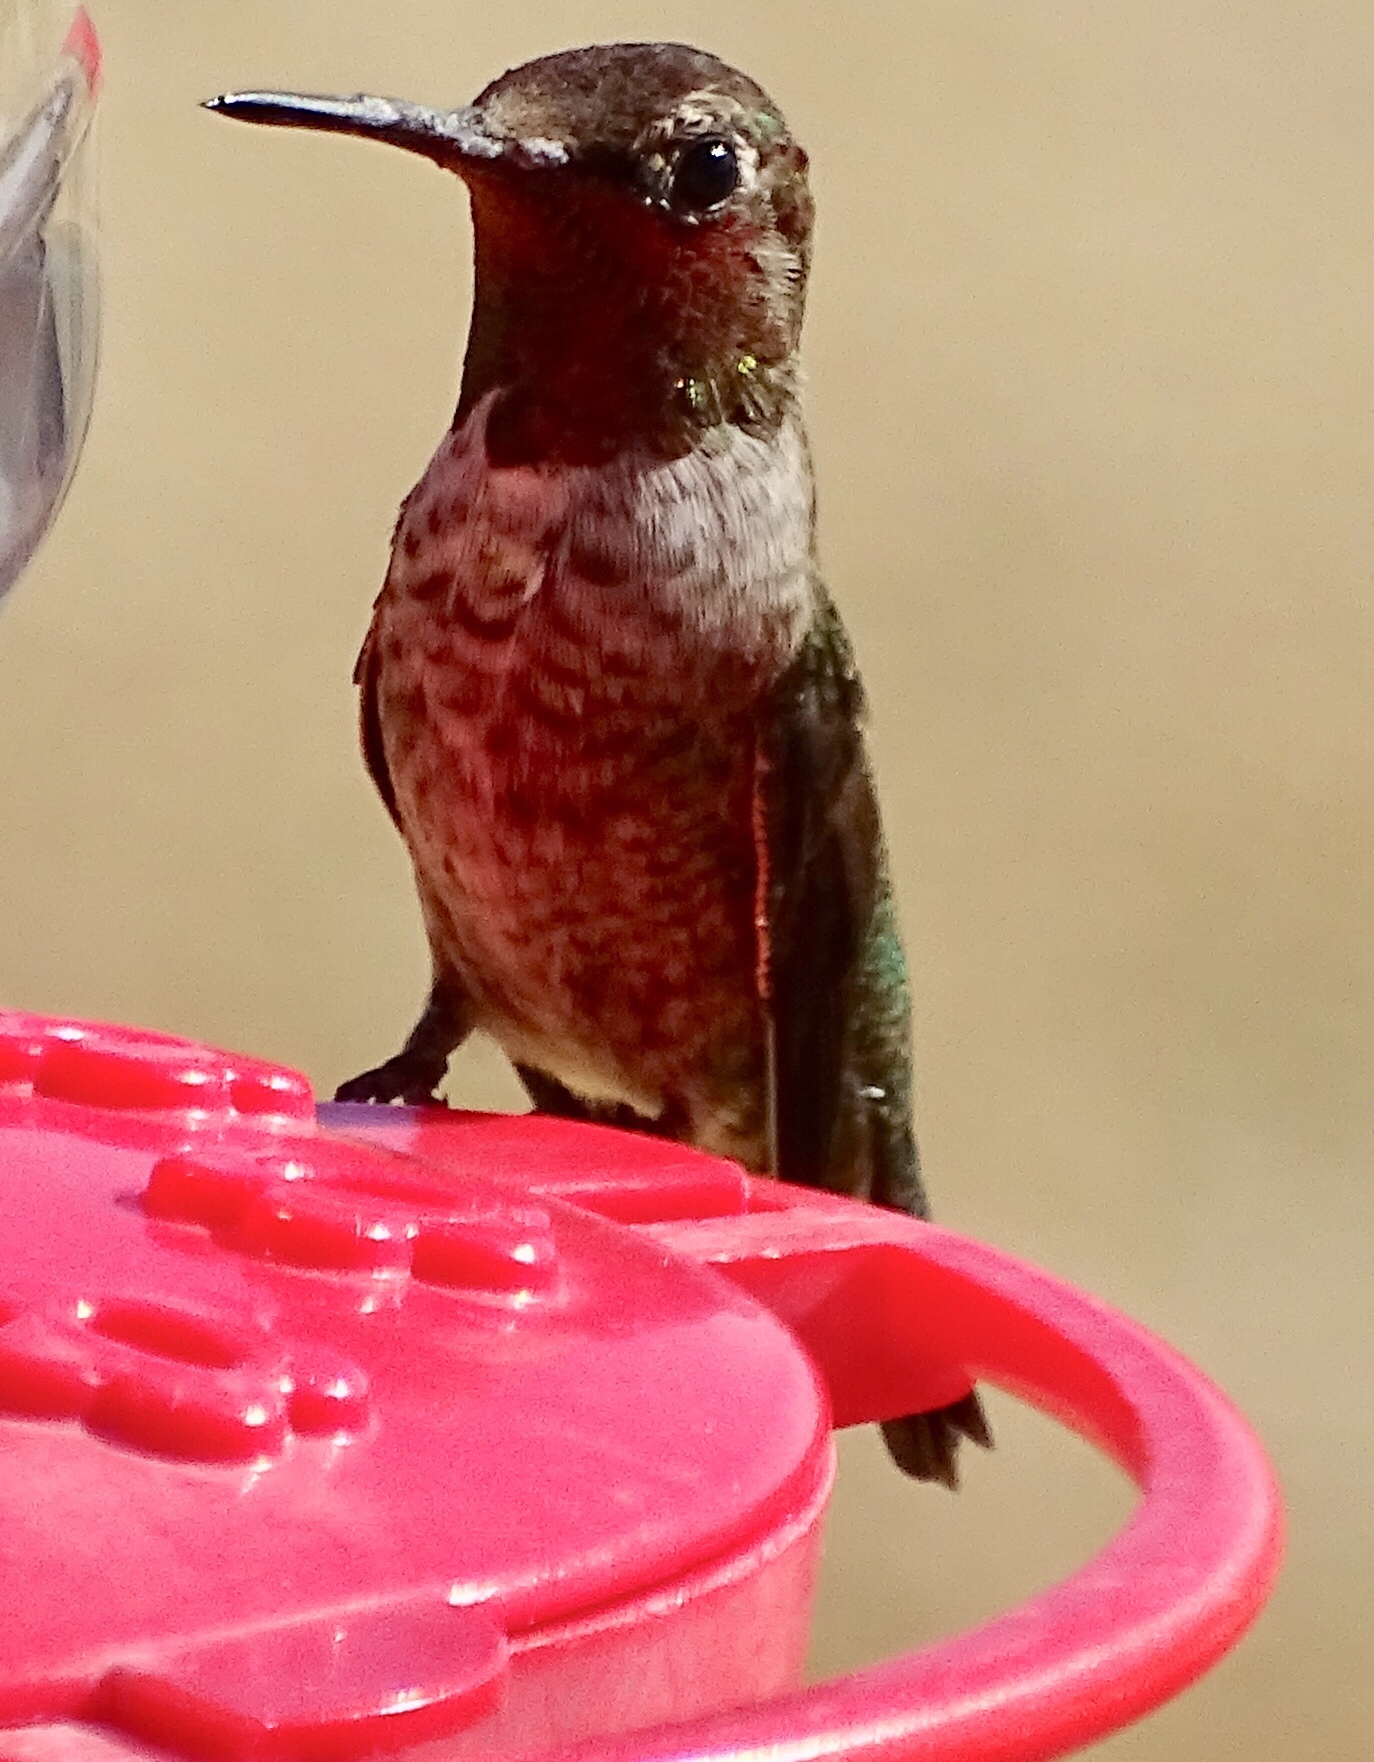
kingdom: Animalia
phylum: Chordata
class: Aves
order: Apodiformes
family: Trochilidae
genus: Calypte
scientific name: Calypte anna
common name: Anna's hummingbird
